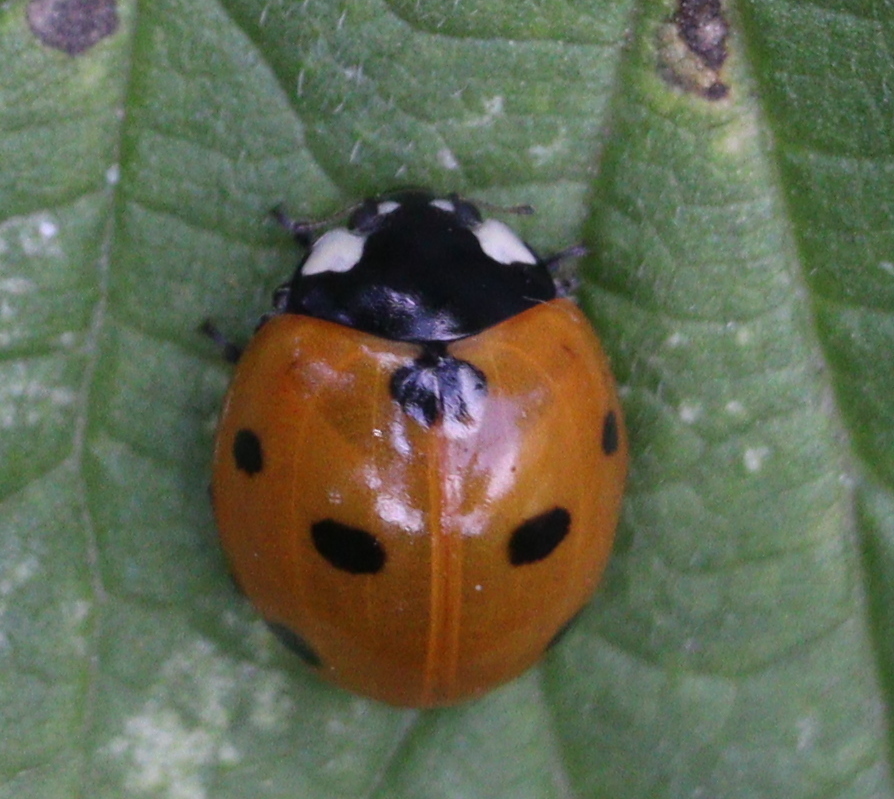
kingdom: Animalia
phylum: Arthropoda
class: Insecta
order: Coleoptera
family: Coccinellidae
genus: Coccinella
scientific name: Coccinella septempunctata
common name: Sevenspotted lady beetle
